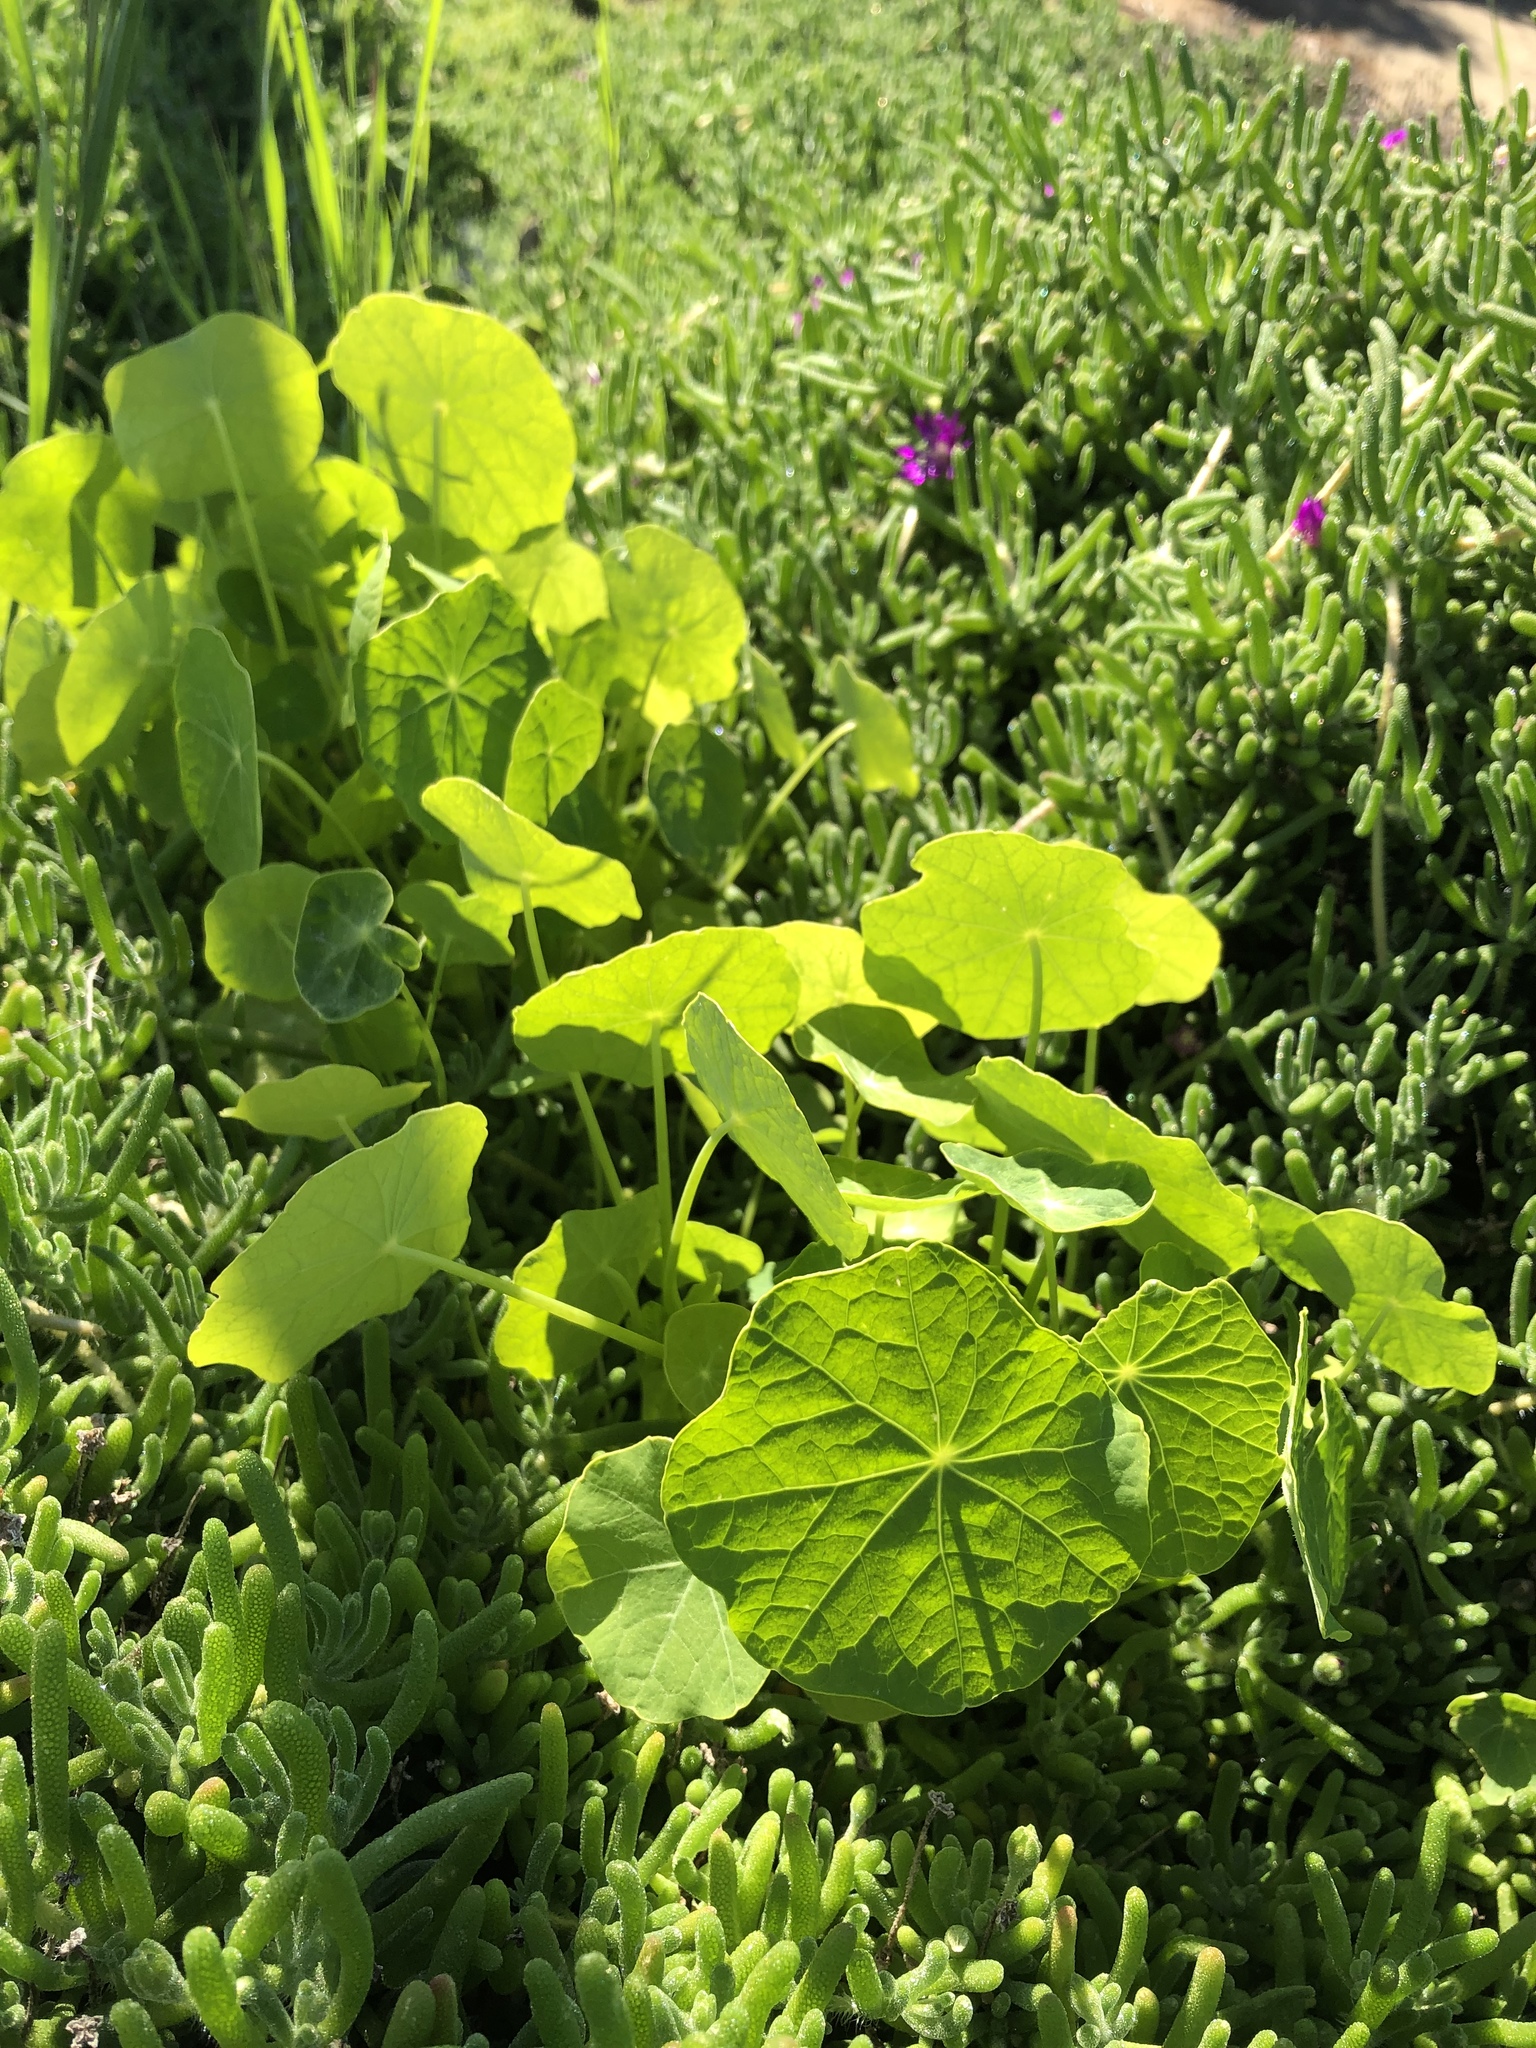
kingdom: Plantae
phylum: Tracheophyta
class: Magnoliopsida
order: Brassicales
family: Tropaeolaceae
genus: Tropaeolum
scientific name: Tropaeolum majus
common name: Nasturtium
